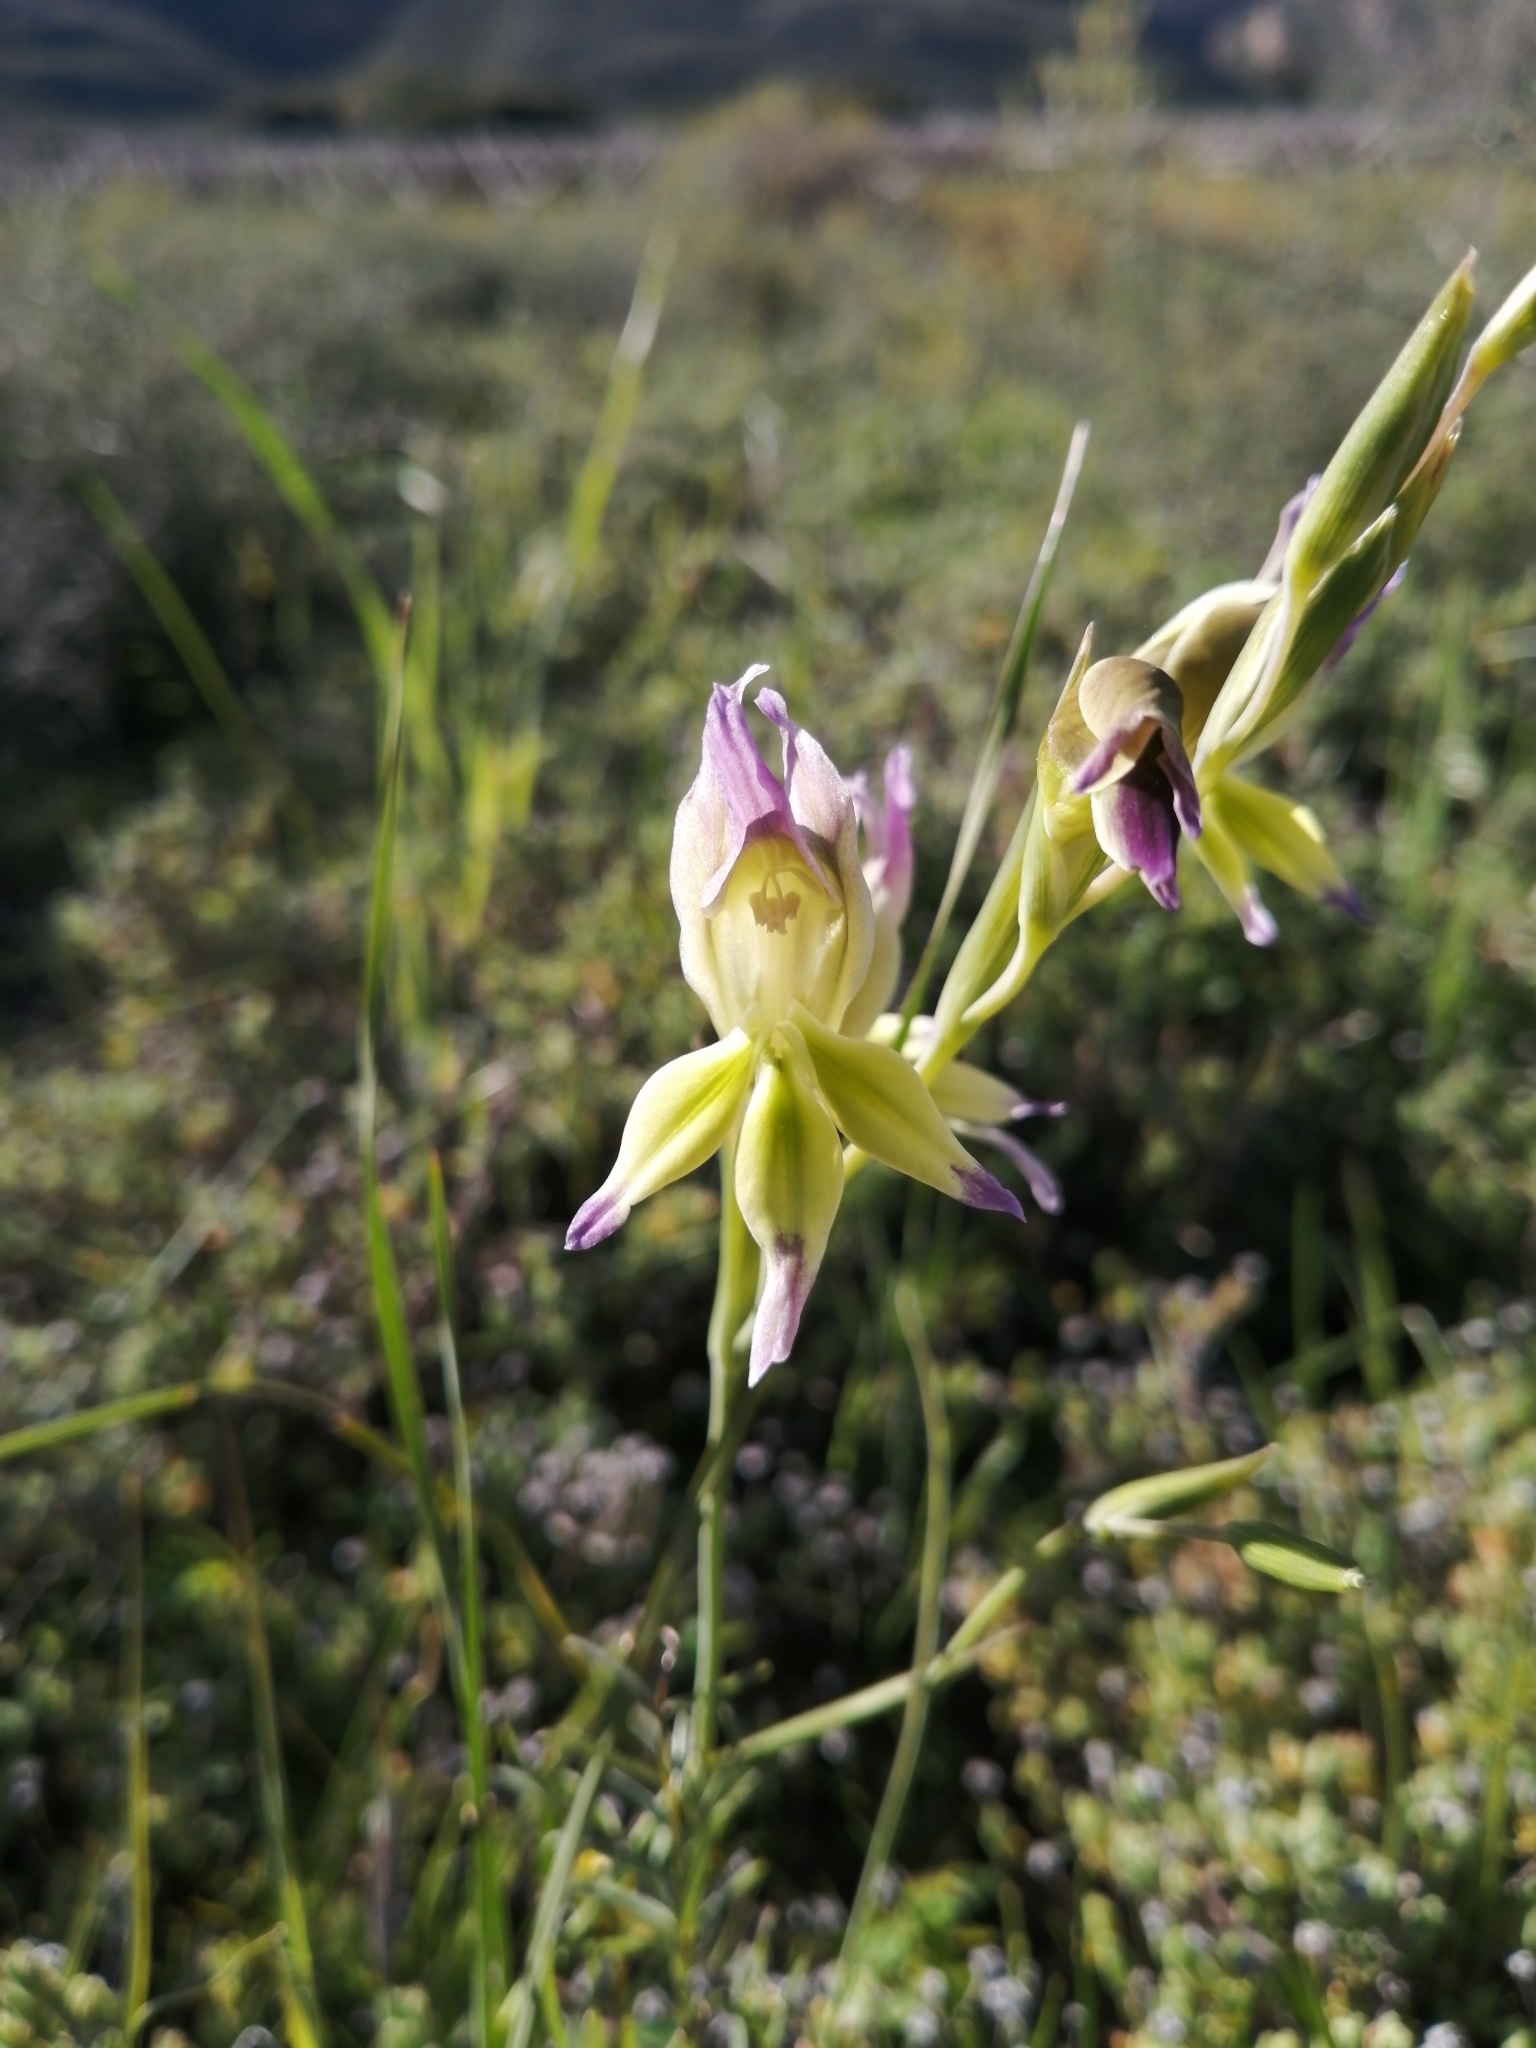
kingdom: Plantae
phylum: Tracheophyta
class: Liliopsida
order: Asparagales
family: Iridaceae
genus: Gladiolus
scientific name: Gladiolus venustus
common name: Purple kalkoentjie
